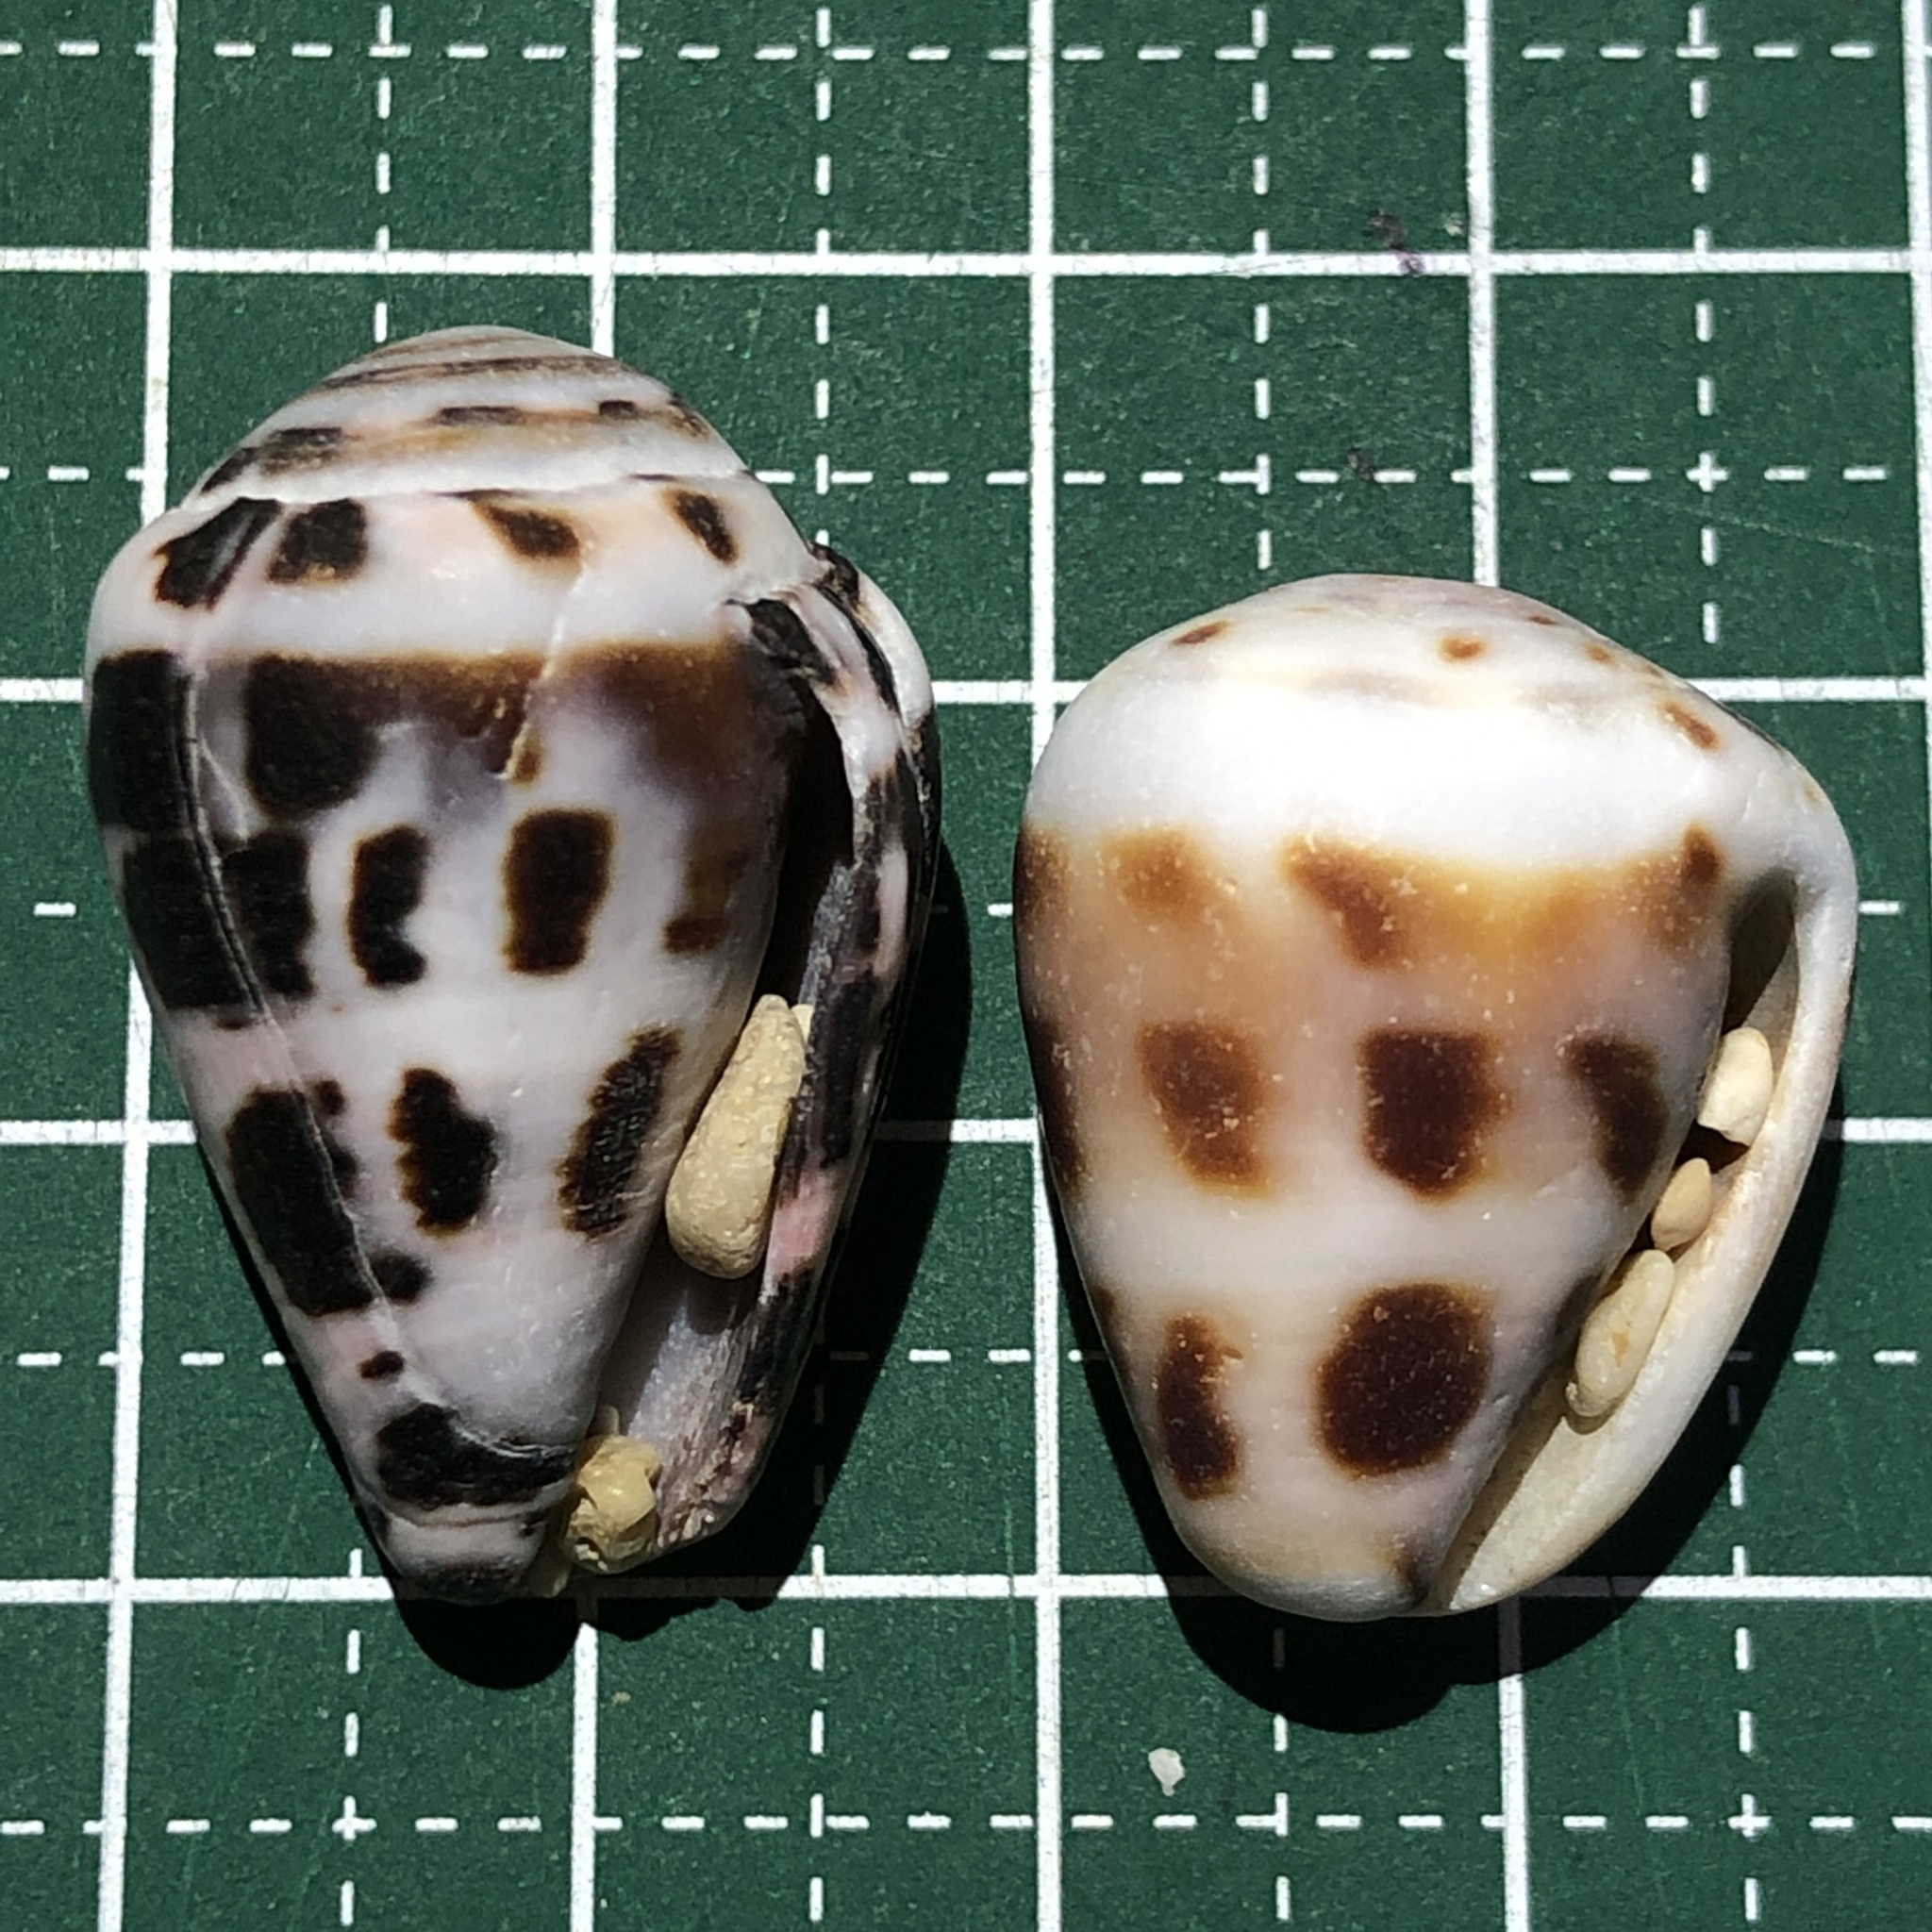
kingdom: Animalia
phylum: Mollusca
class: Gastropoda
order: Neogastropoda
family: Conidae
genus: Conus
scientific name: Conus ebraeus
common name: Hebrew cone
